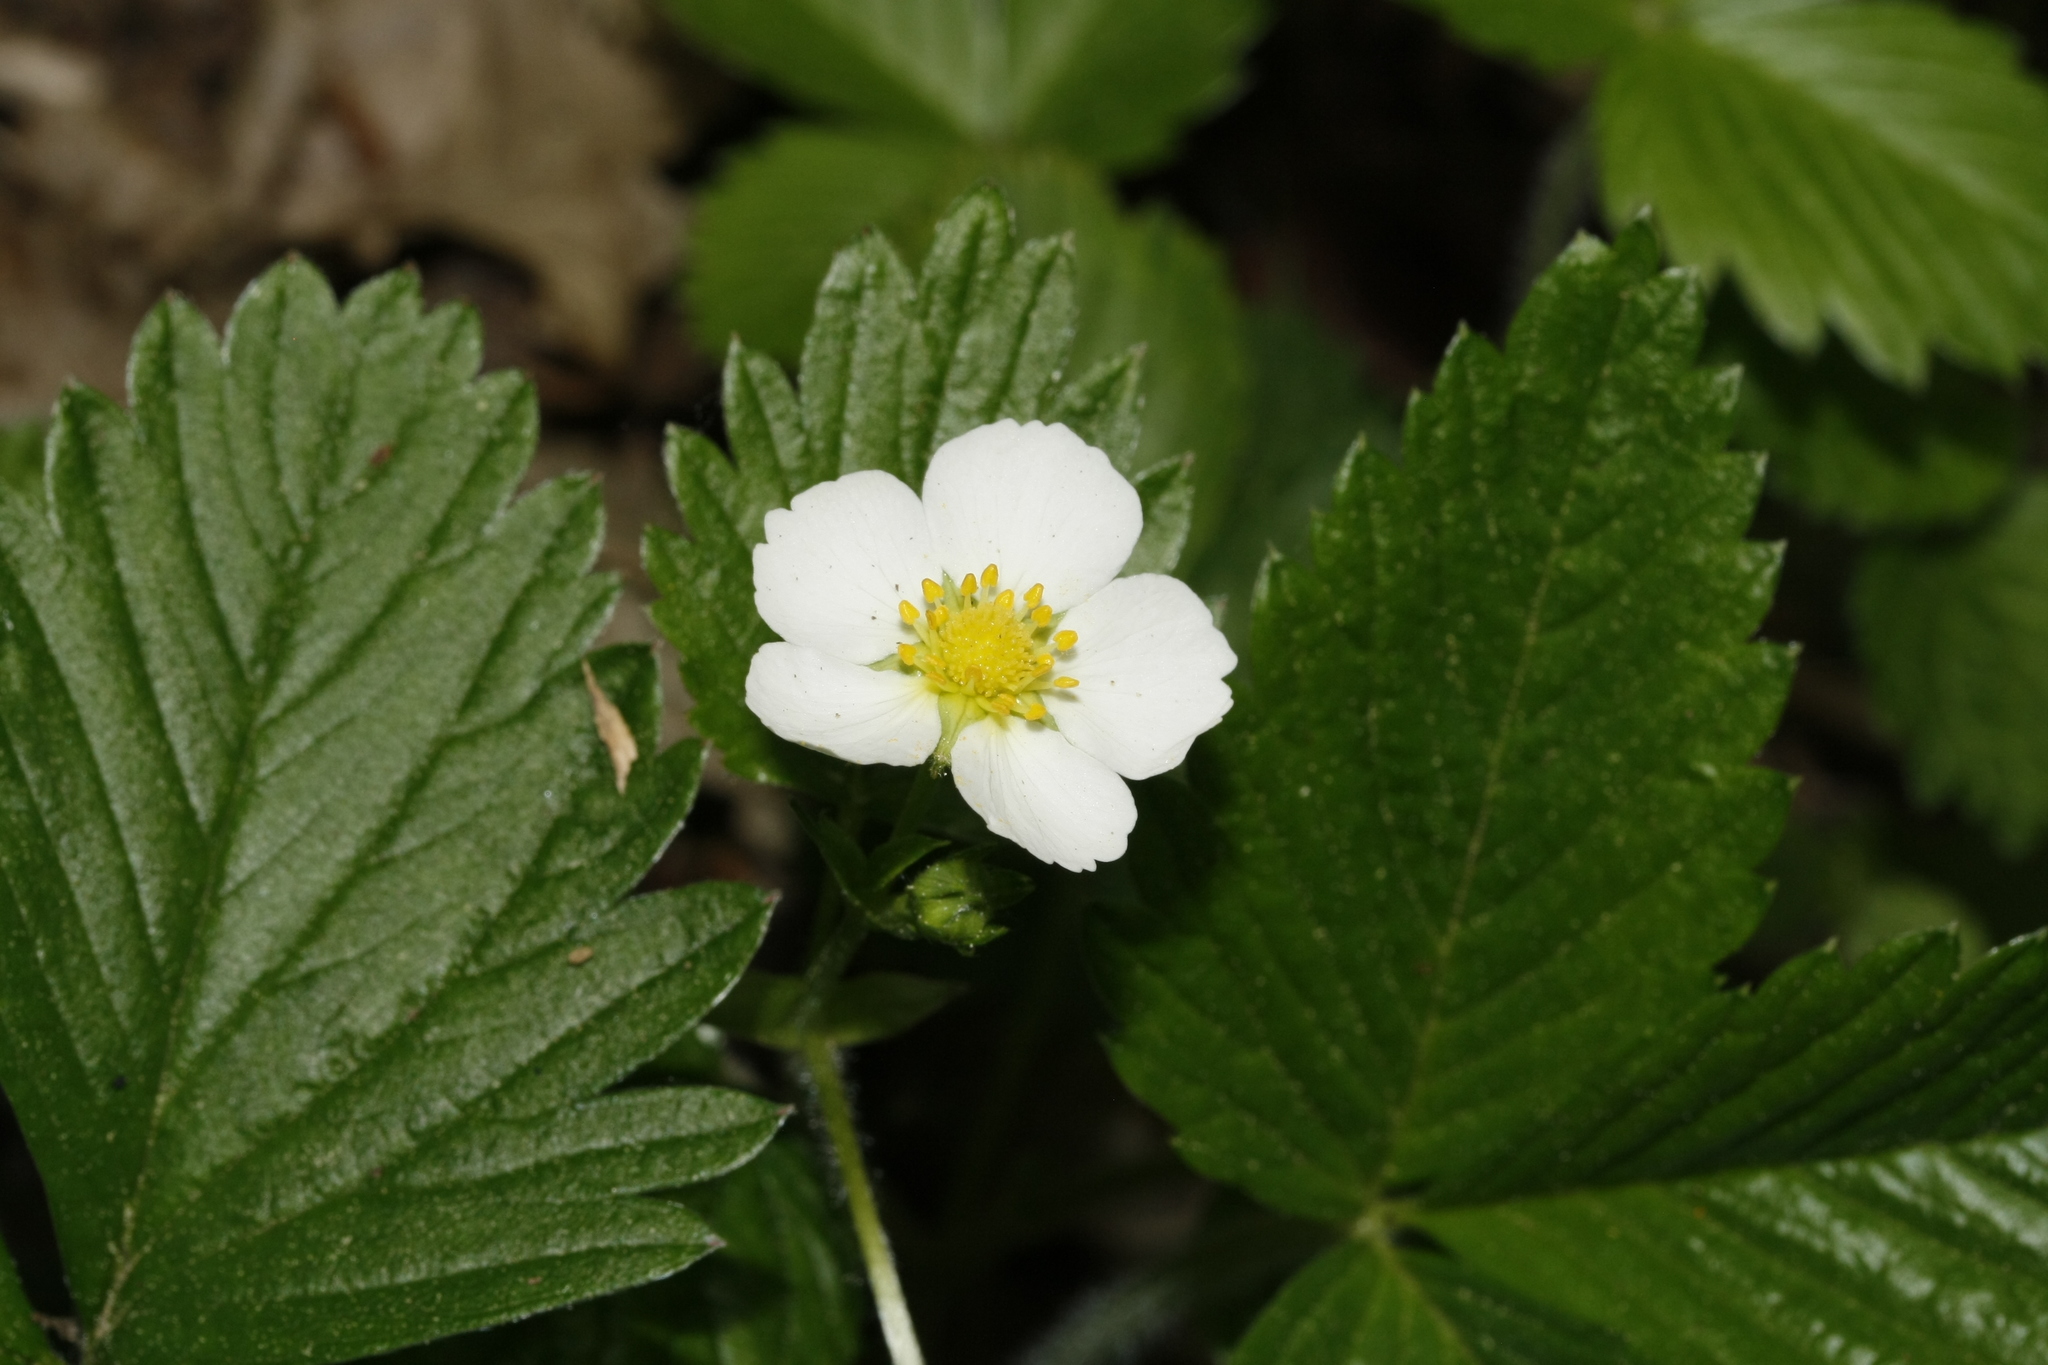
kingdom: Plantae
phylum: Tracheophyta
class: Magnoliopsida
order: Rosales
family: Rosaceae
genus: Fragaria
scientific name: Fragaria vesca
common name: Wild strawberry
